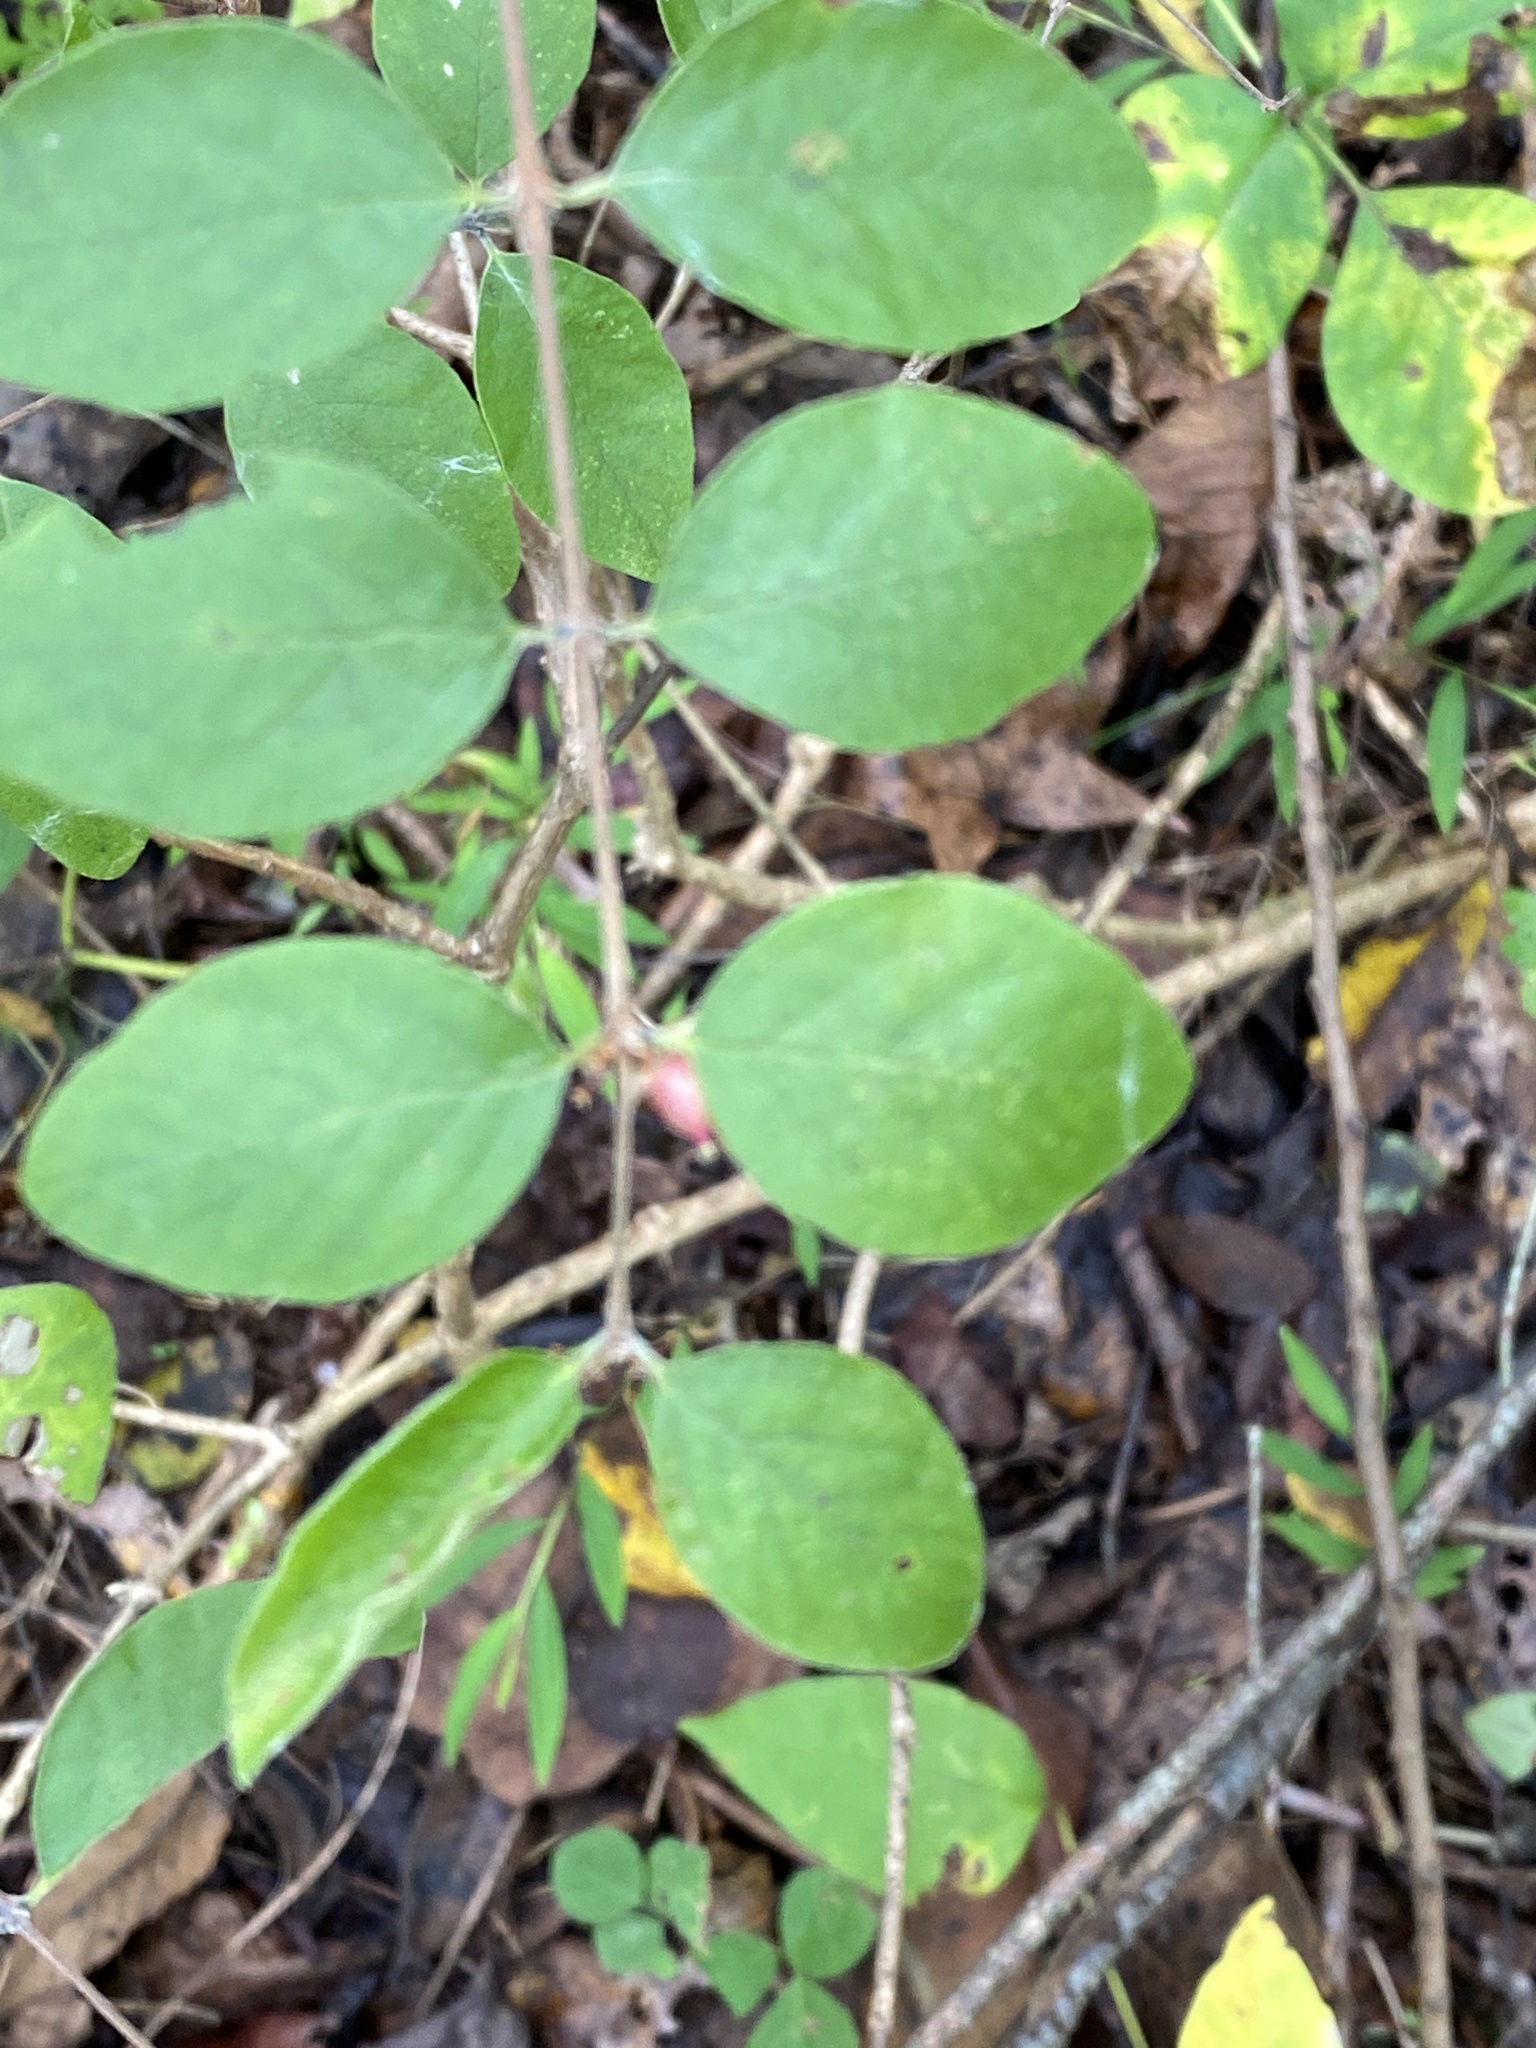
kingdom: Plantae
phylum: Tracheophyta
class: Magnoliopsida
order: Dipsacales
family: Caprifoliaceae
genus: Symphoricarpos
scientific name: Symphoricarpos orbiculatus
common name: Coralberry
